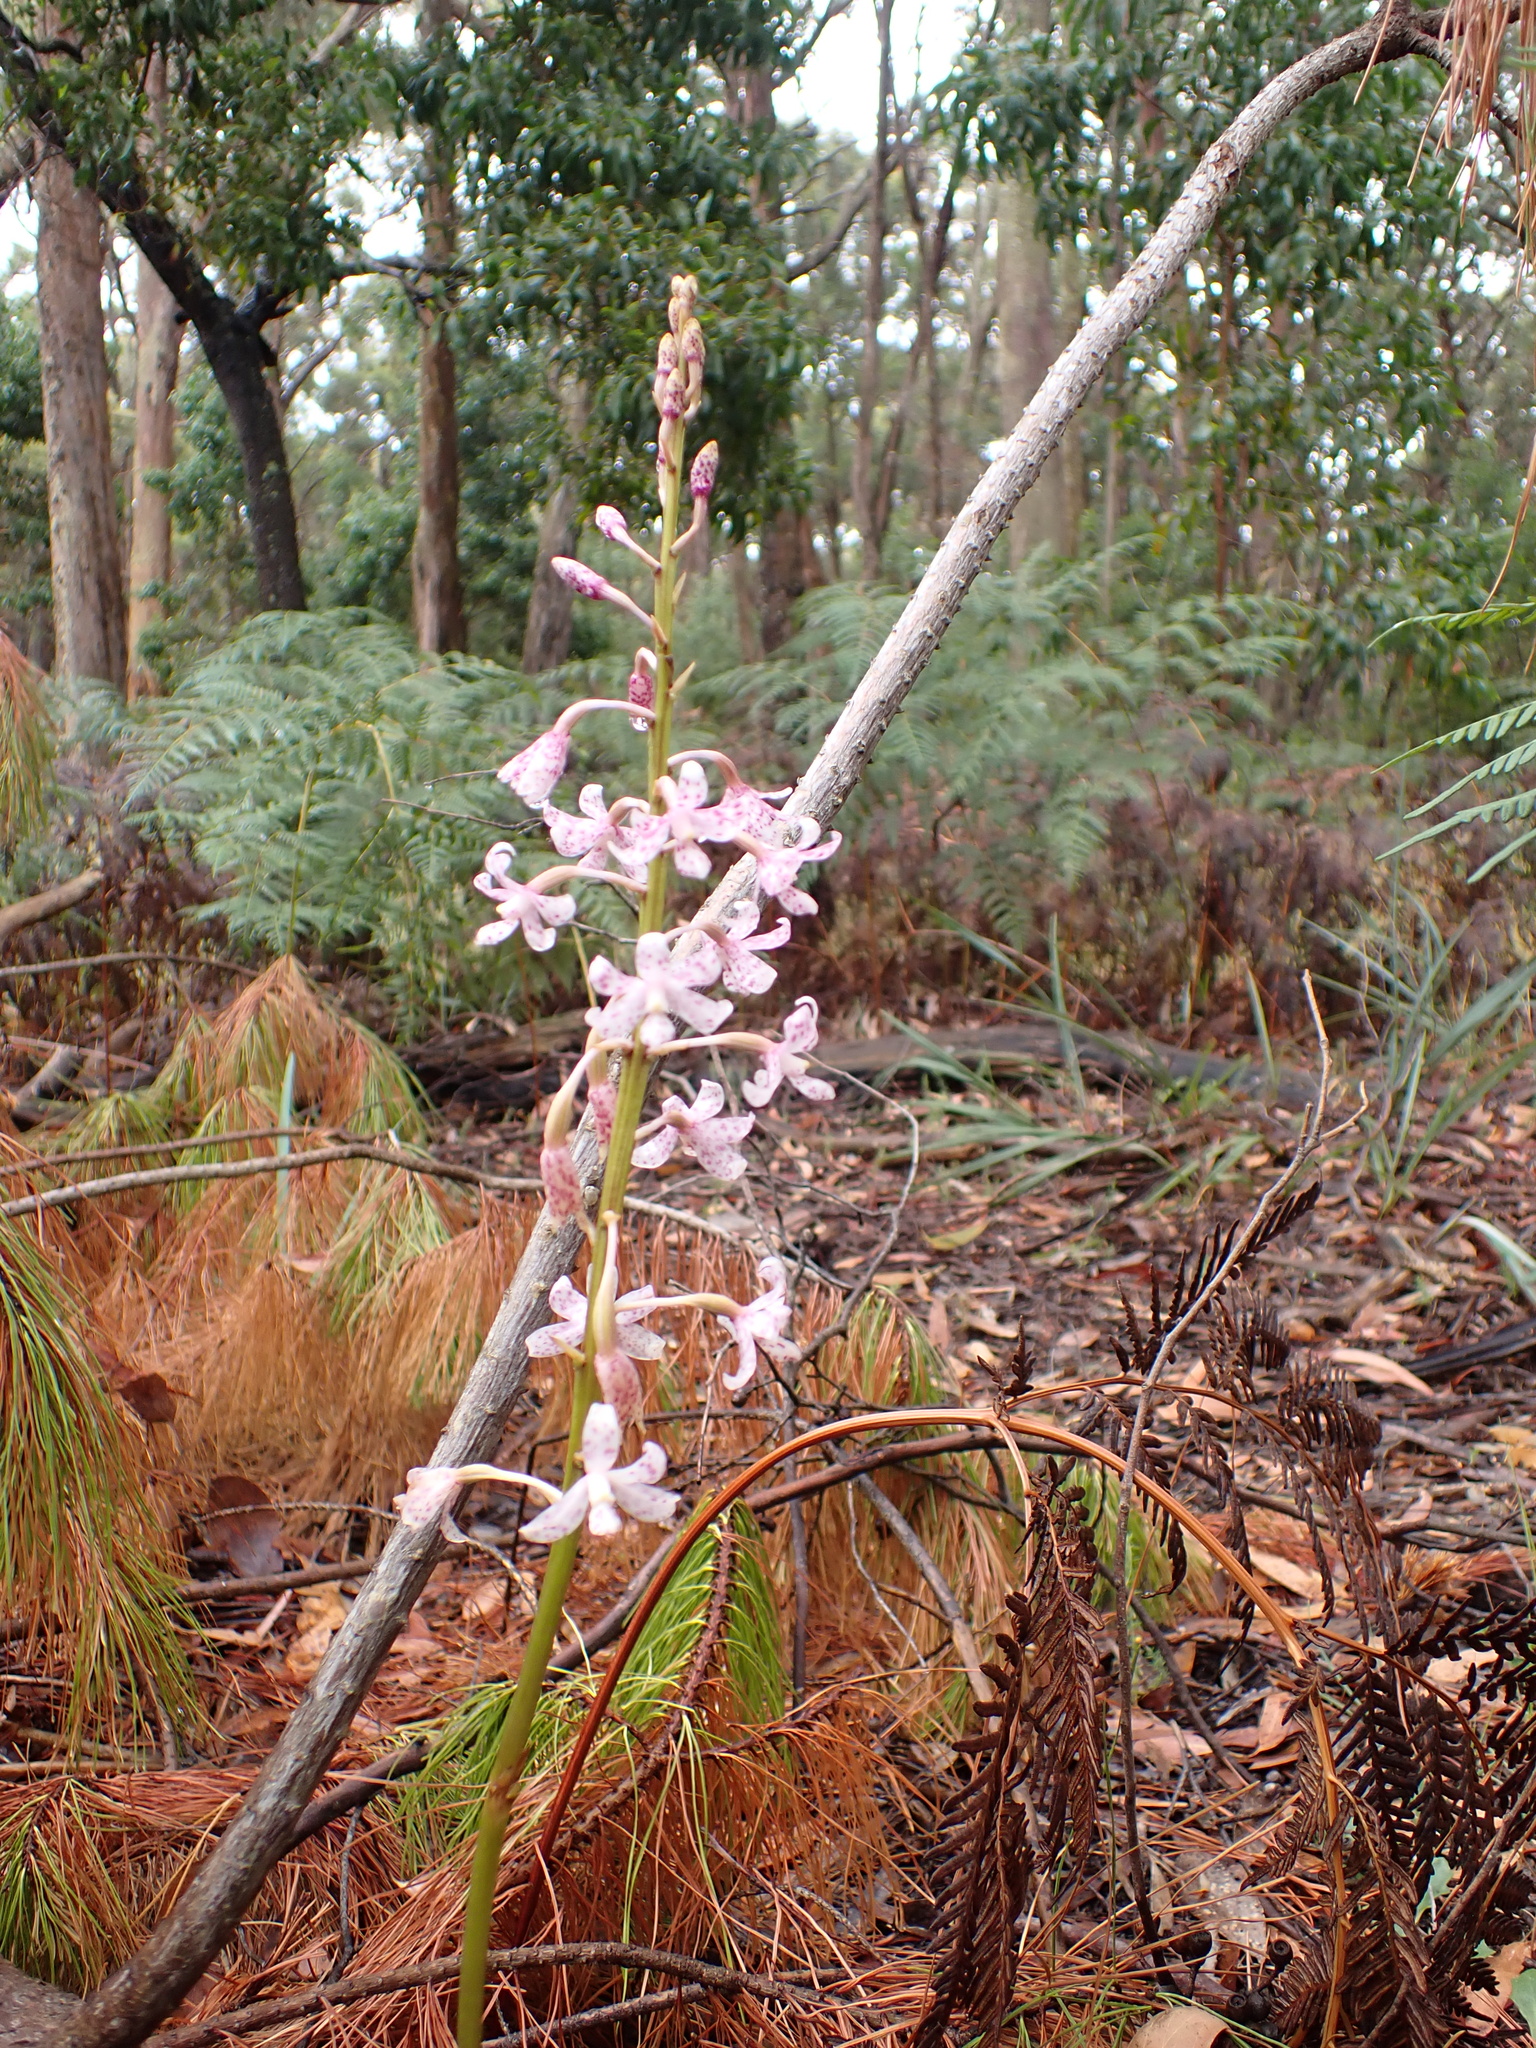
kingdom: Plantae
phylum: Tracheophyta
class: Liliopsida
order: Asparagales
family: Orchidaceae
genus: Dipodium
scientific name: Dipodium pardalinum
